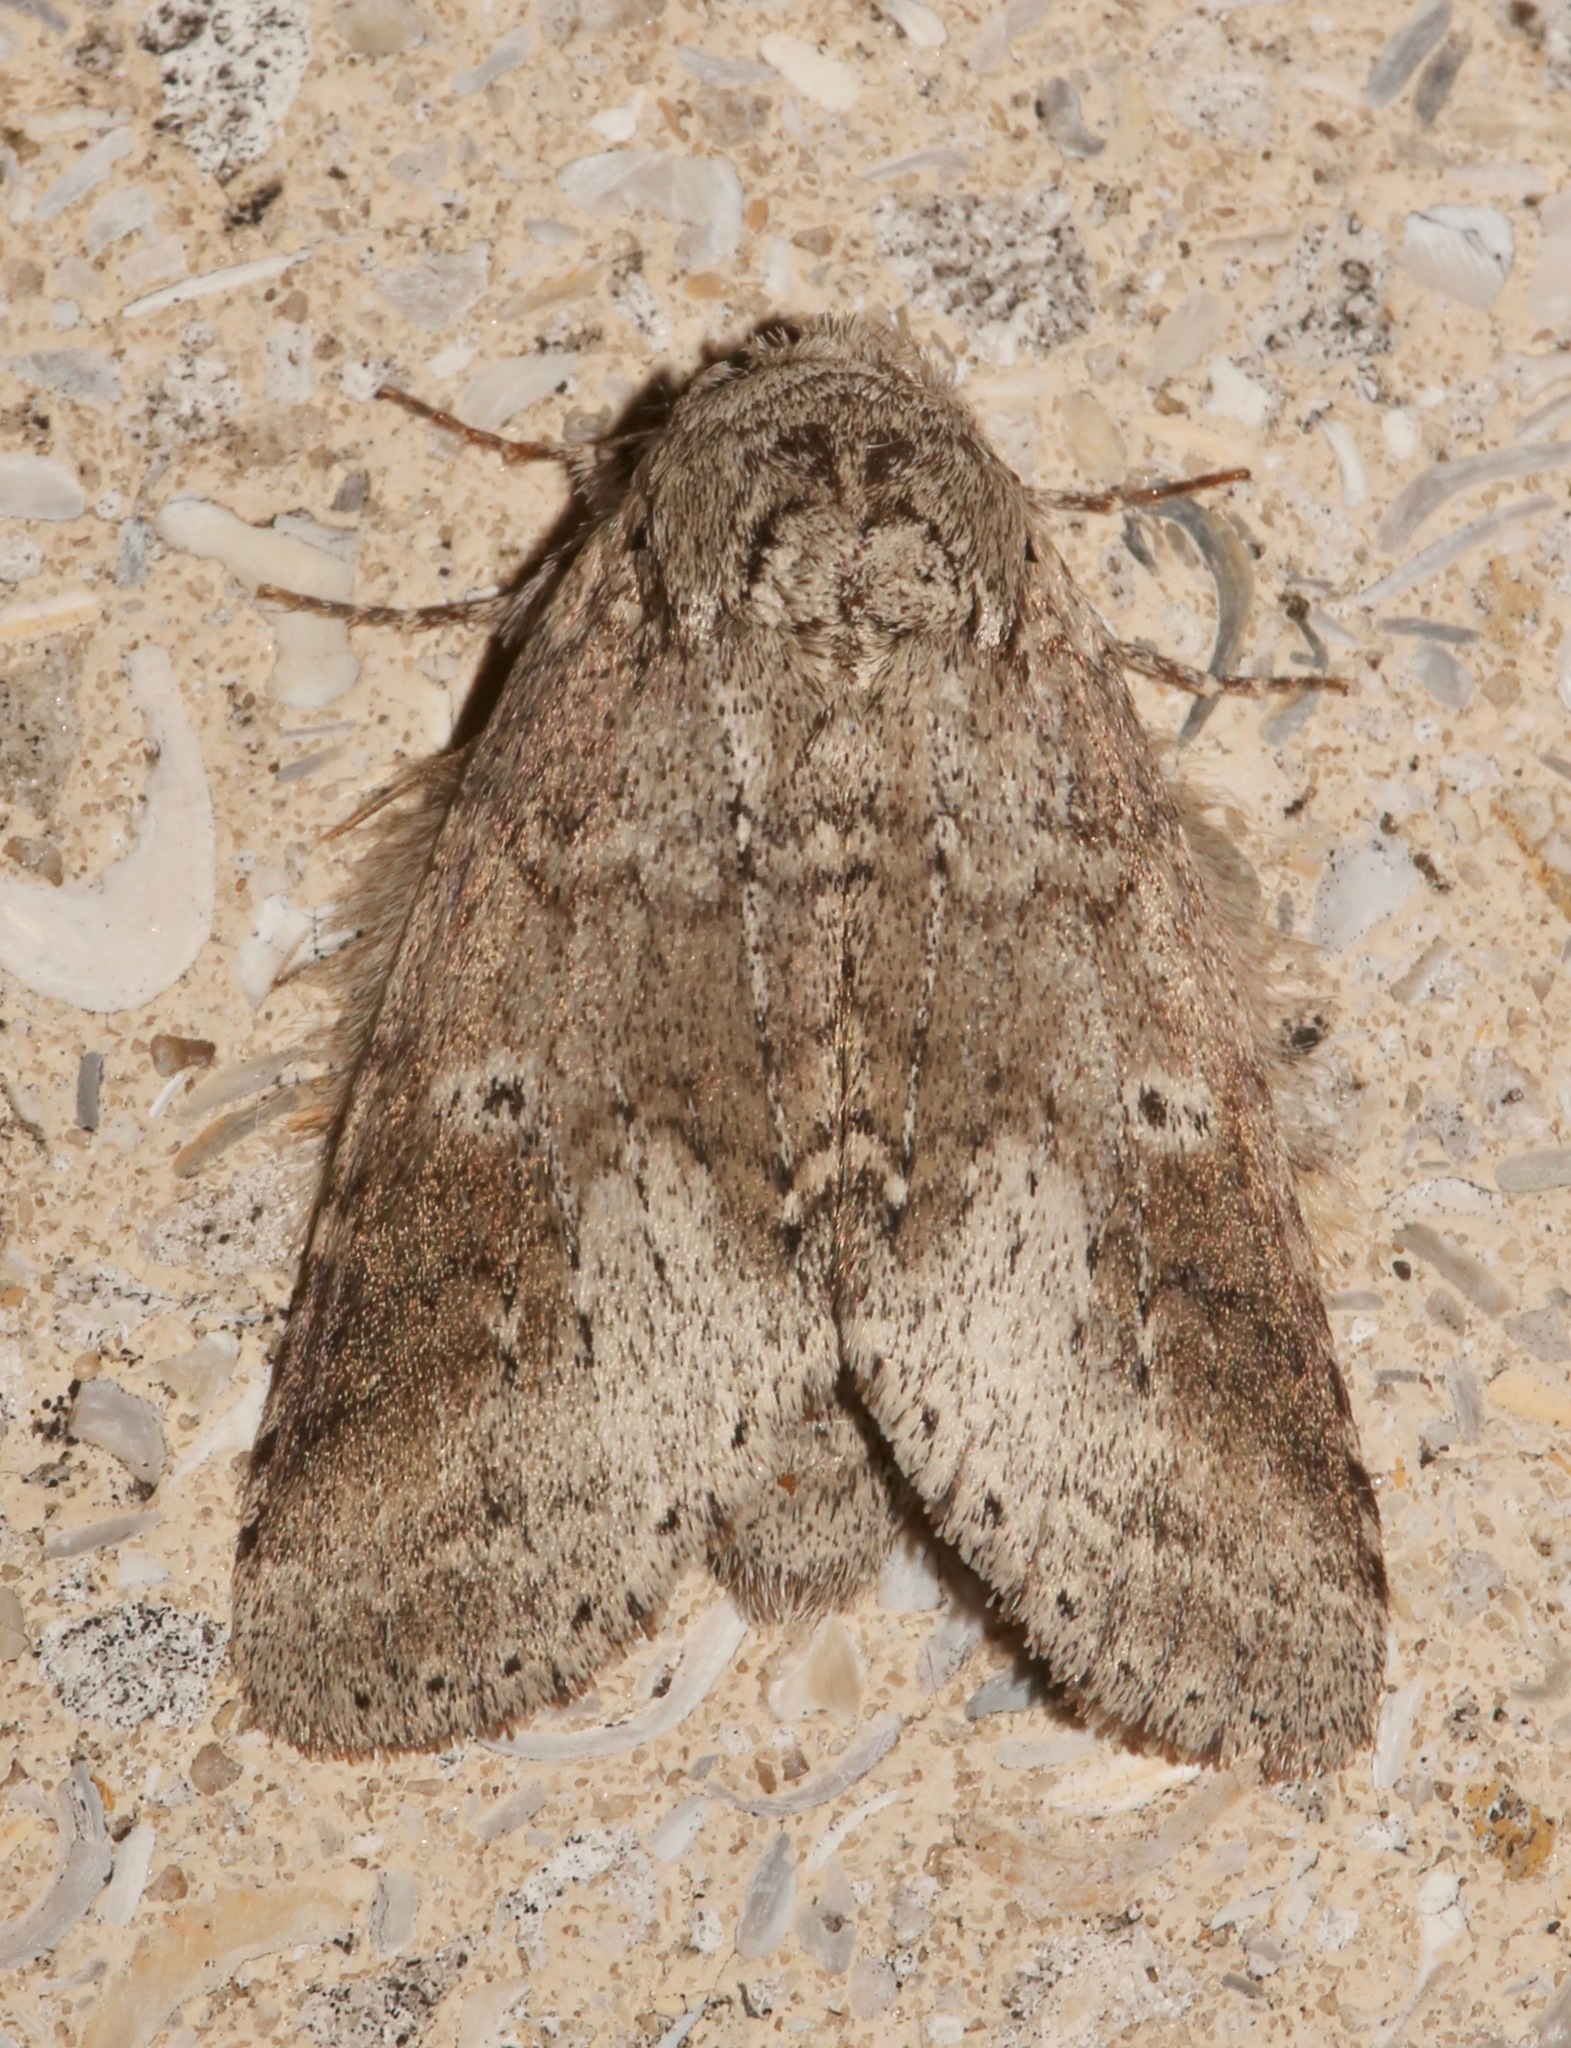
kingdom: Animalia
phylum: Arthropoda
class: Insecta
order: Lepidoptera
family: Notodontidae
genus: Lochmaeus
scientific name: Lochmaeus manteo
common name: Variable oakleaf caterpillar moth
